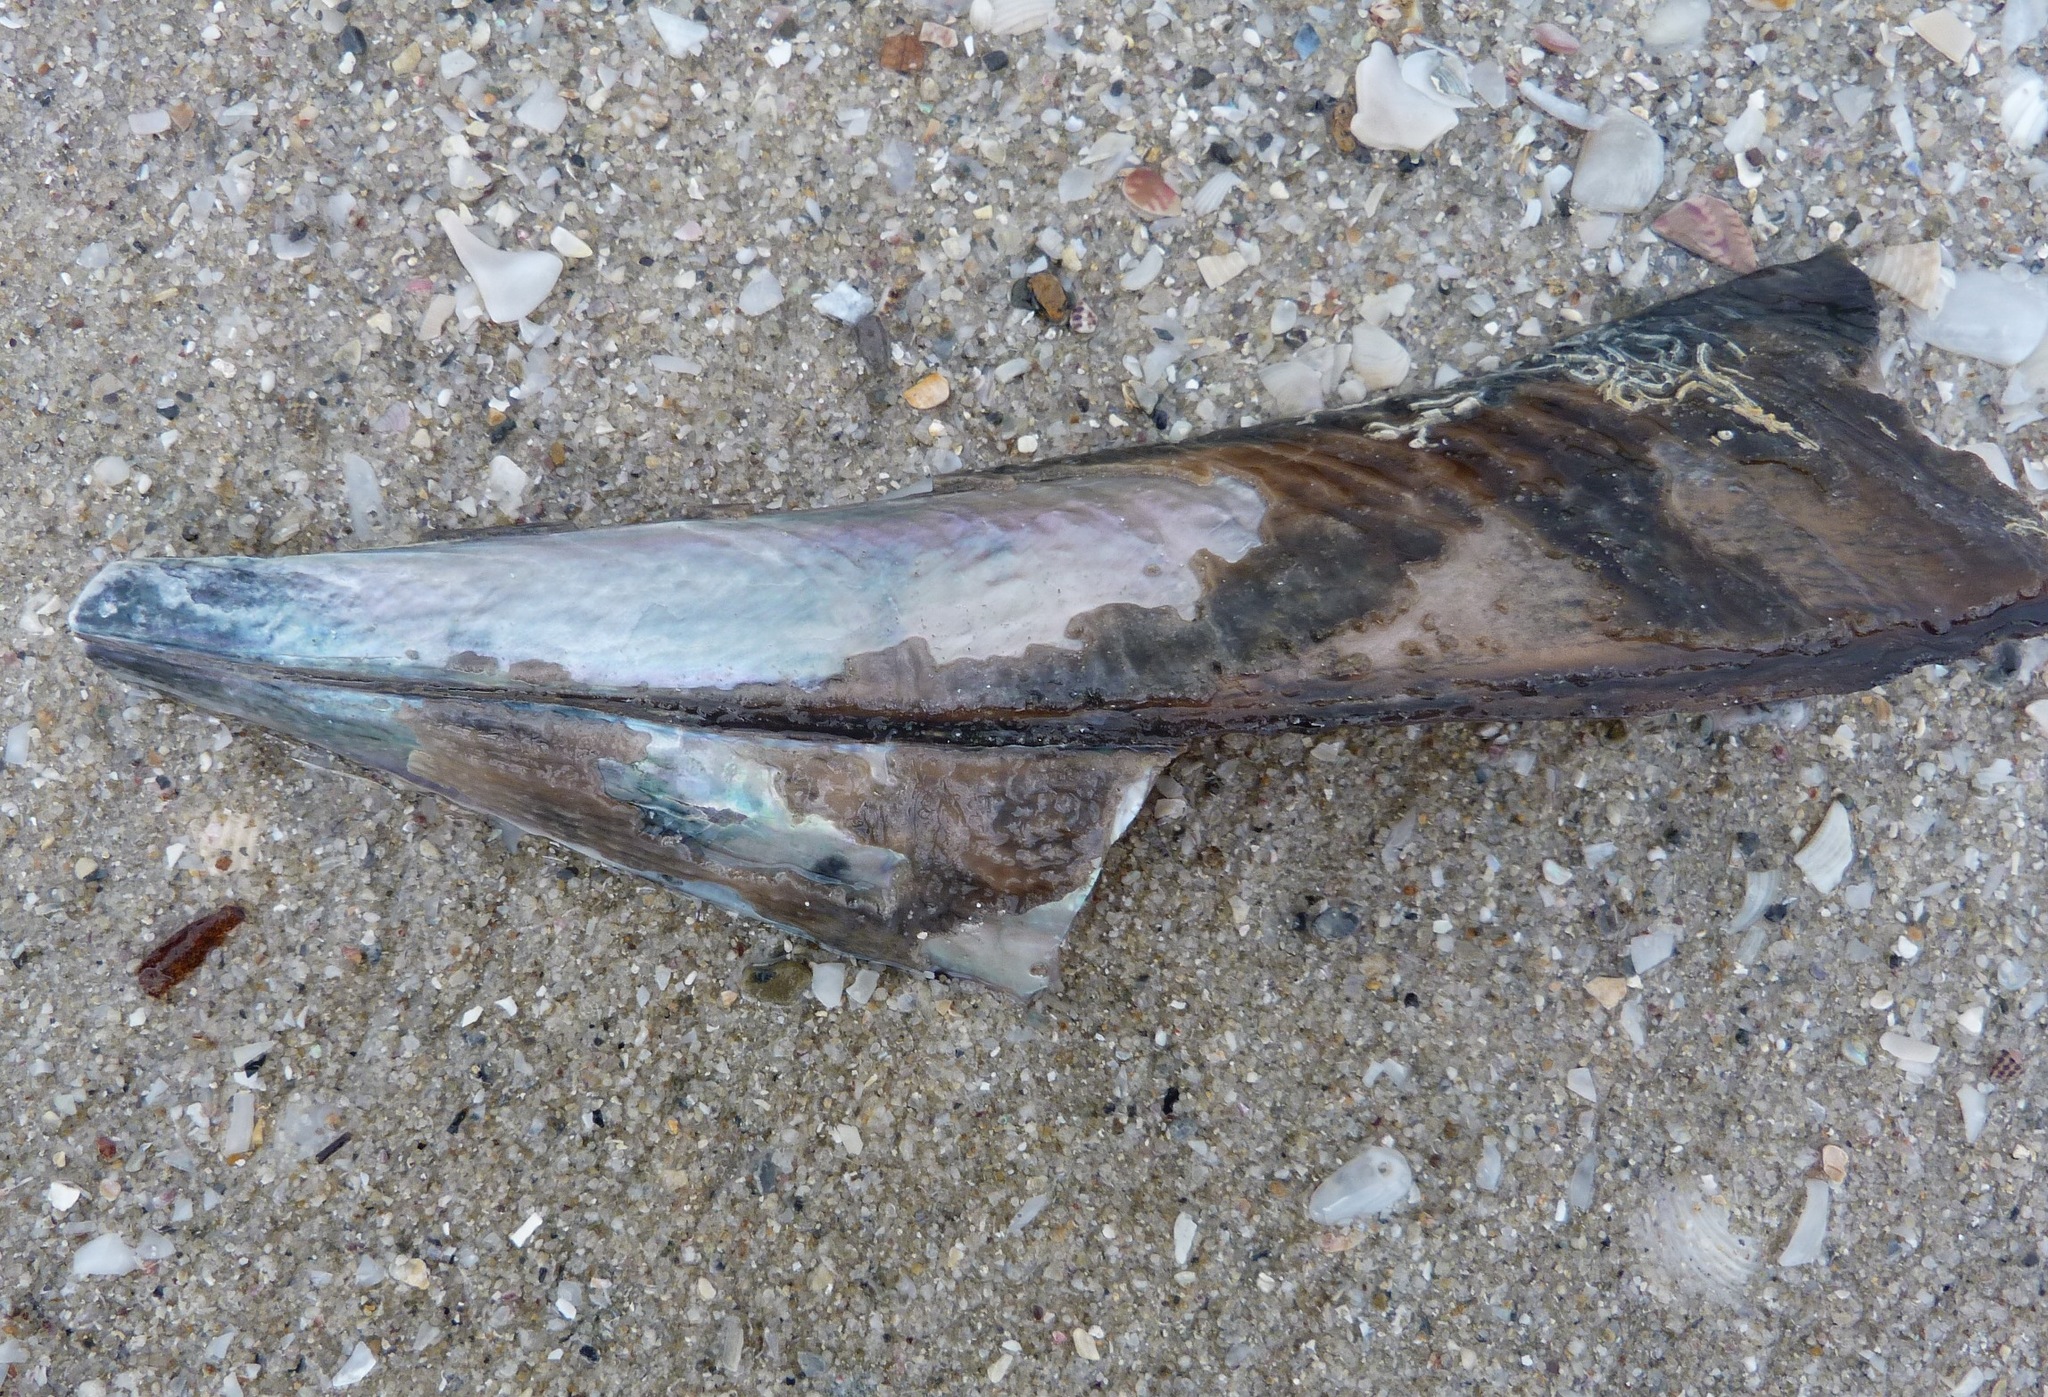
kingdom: Animalia
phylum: Mollusca
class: Bivalvia
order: Ostreida
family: Pinnidae
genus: Pinna
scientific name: Pinna bicolor
